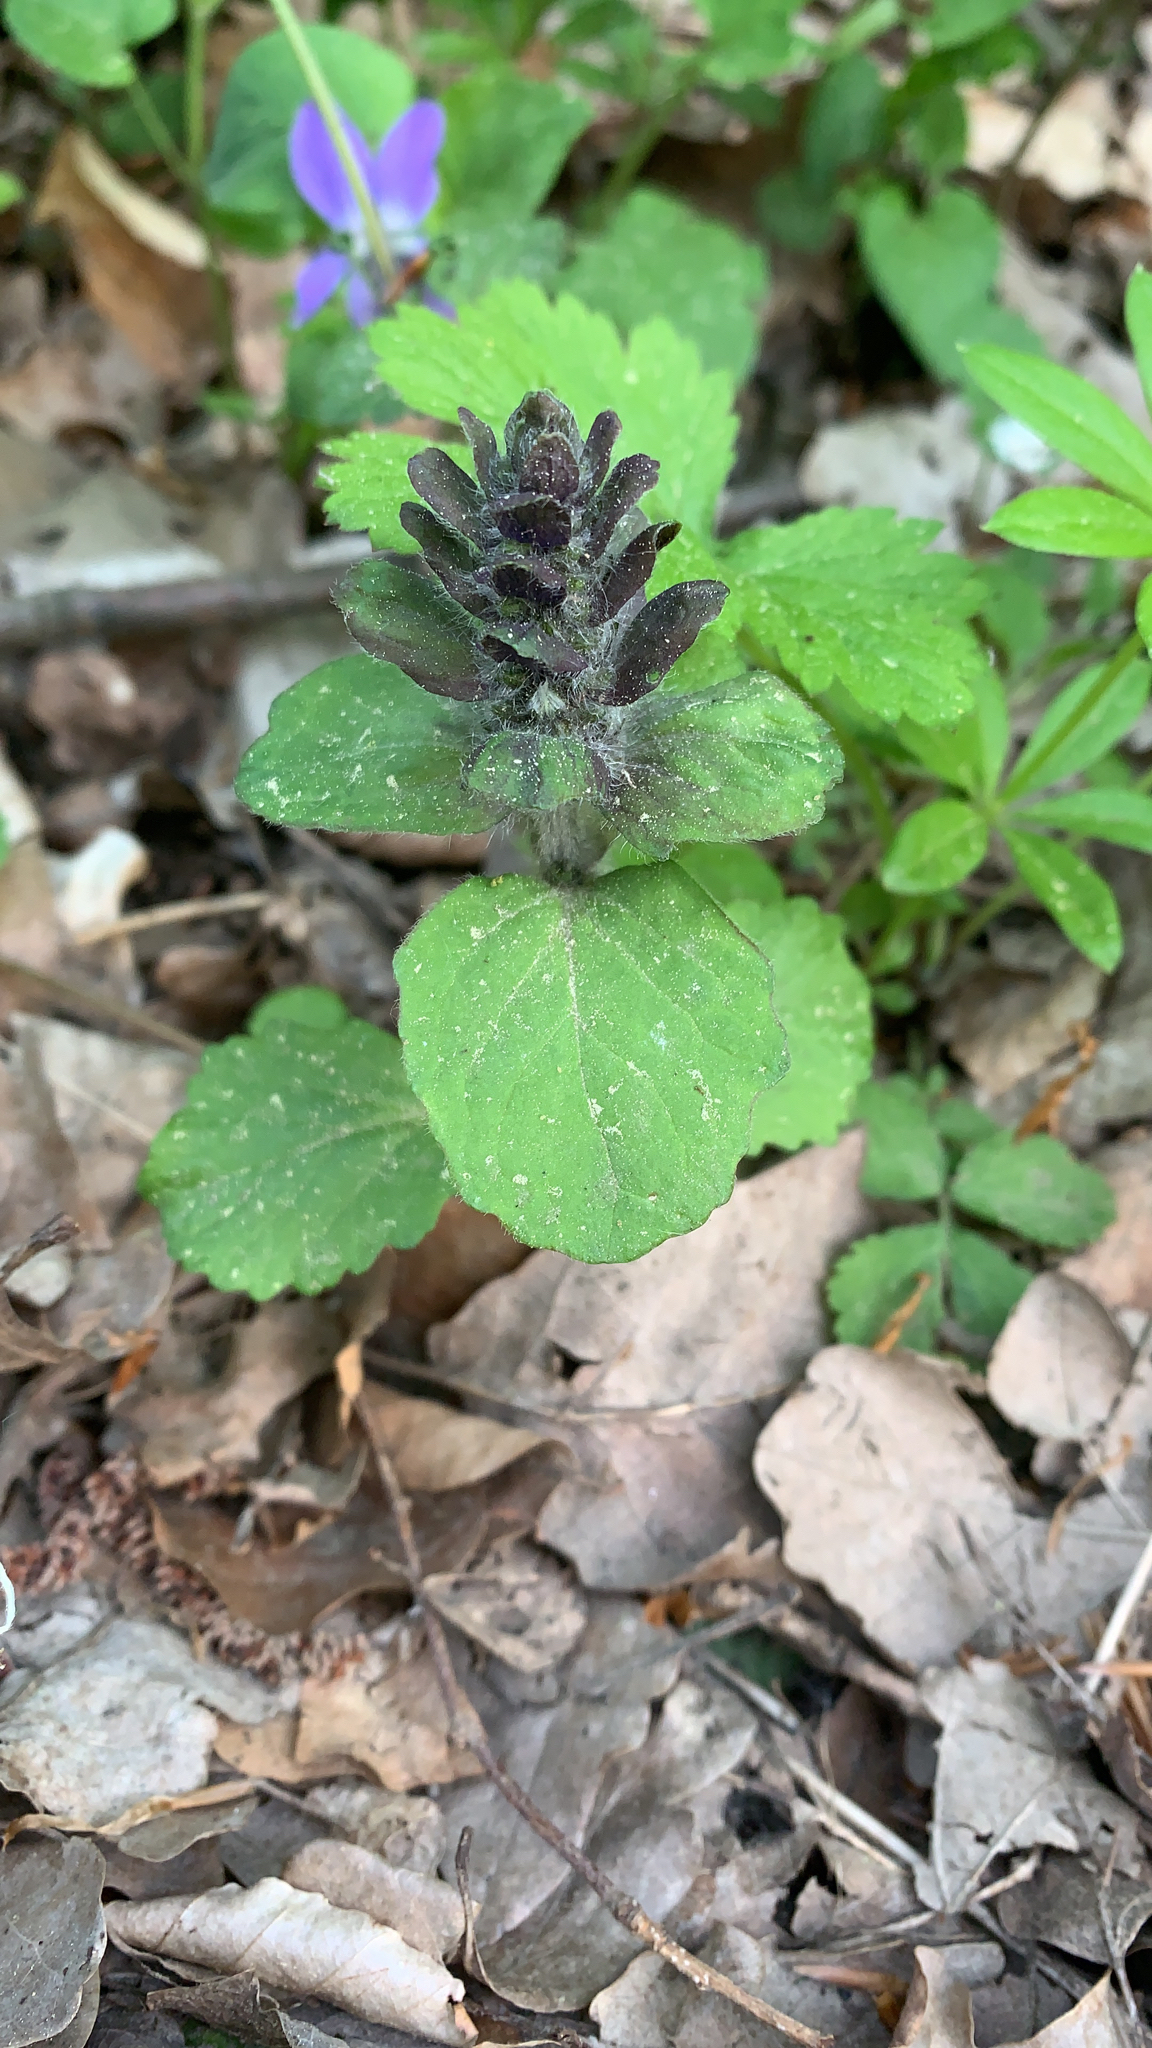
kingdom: Plantae
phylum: Tracheophyta
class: Magnoliopsida
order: Lamiales
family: Lamiaceae
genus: Ajuga
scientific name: Ajuga reptans
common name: Bugle
